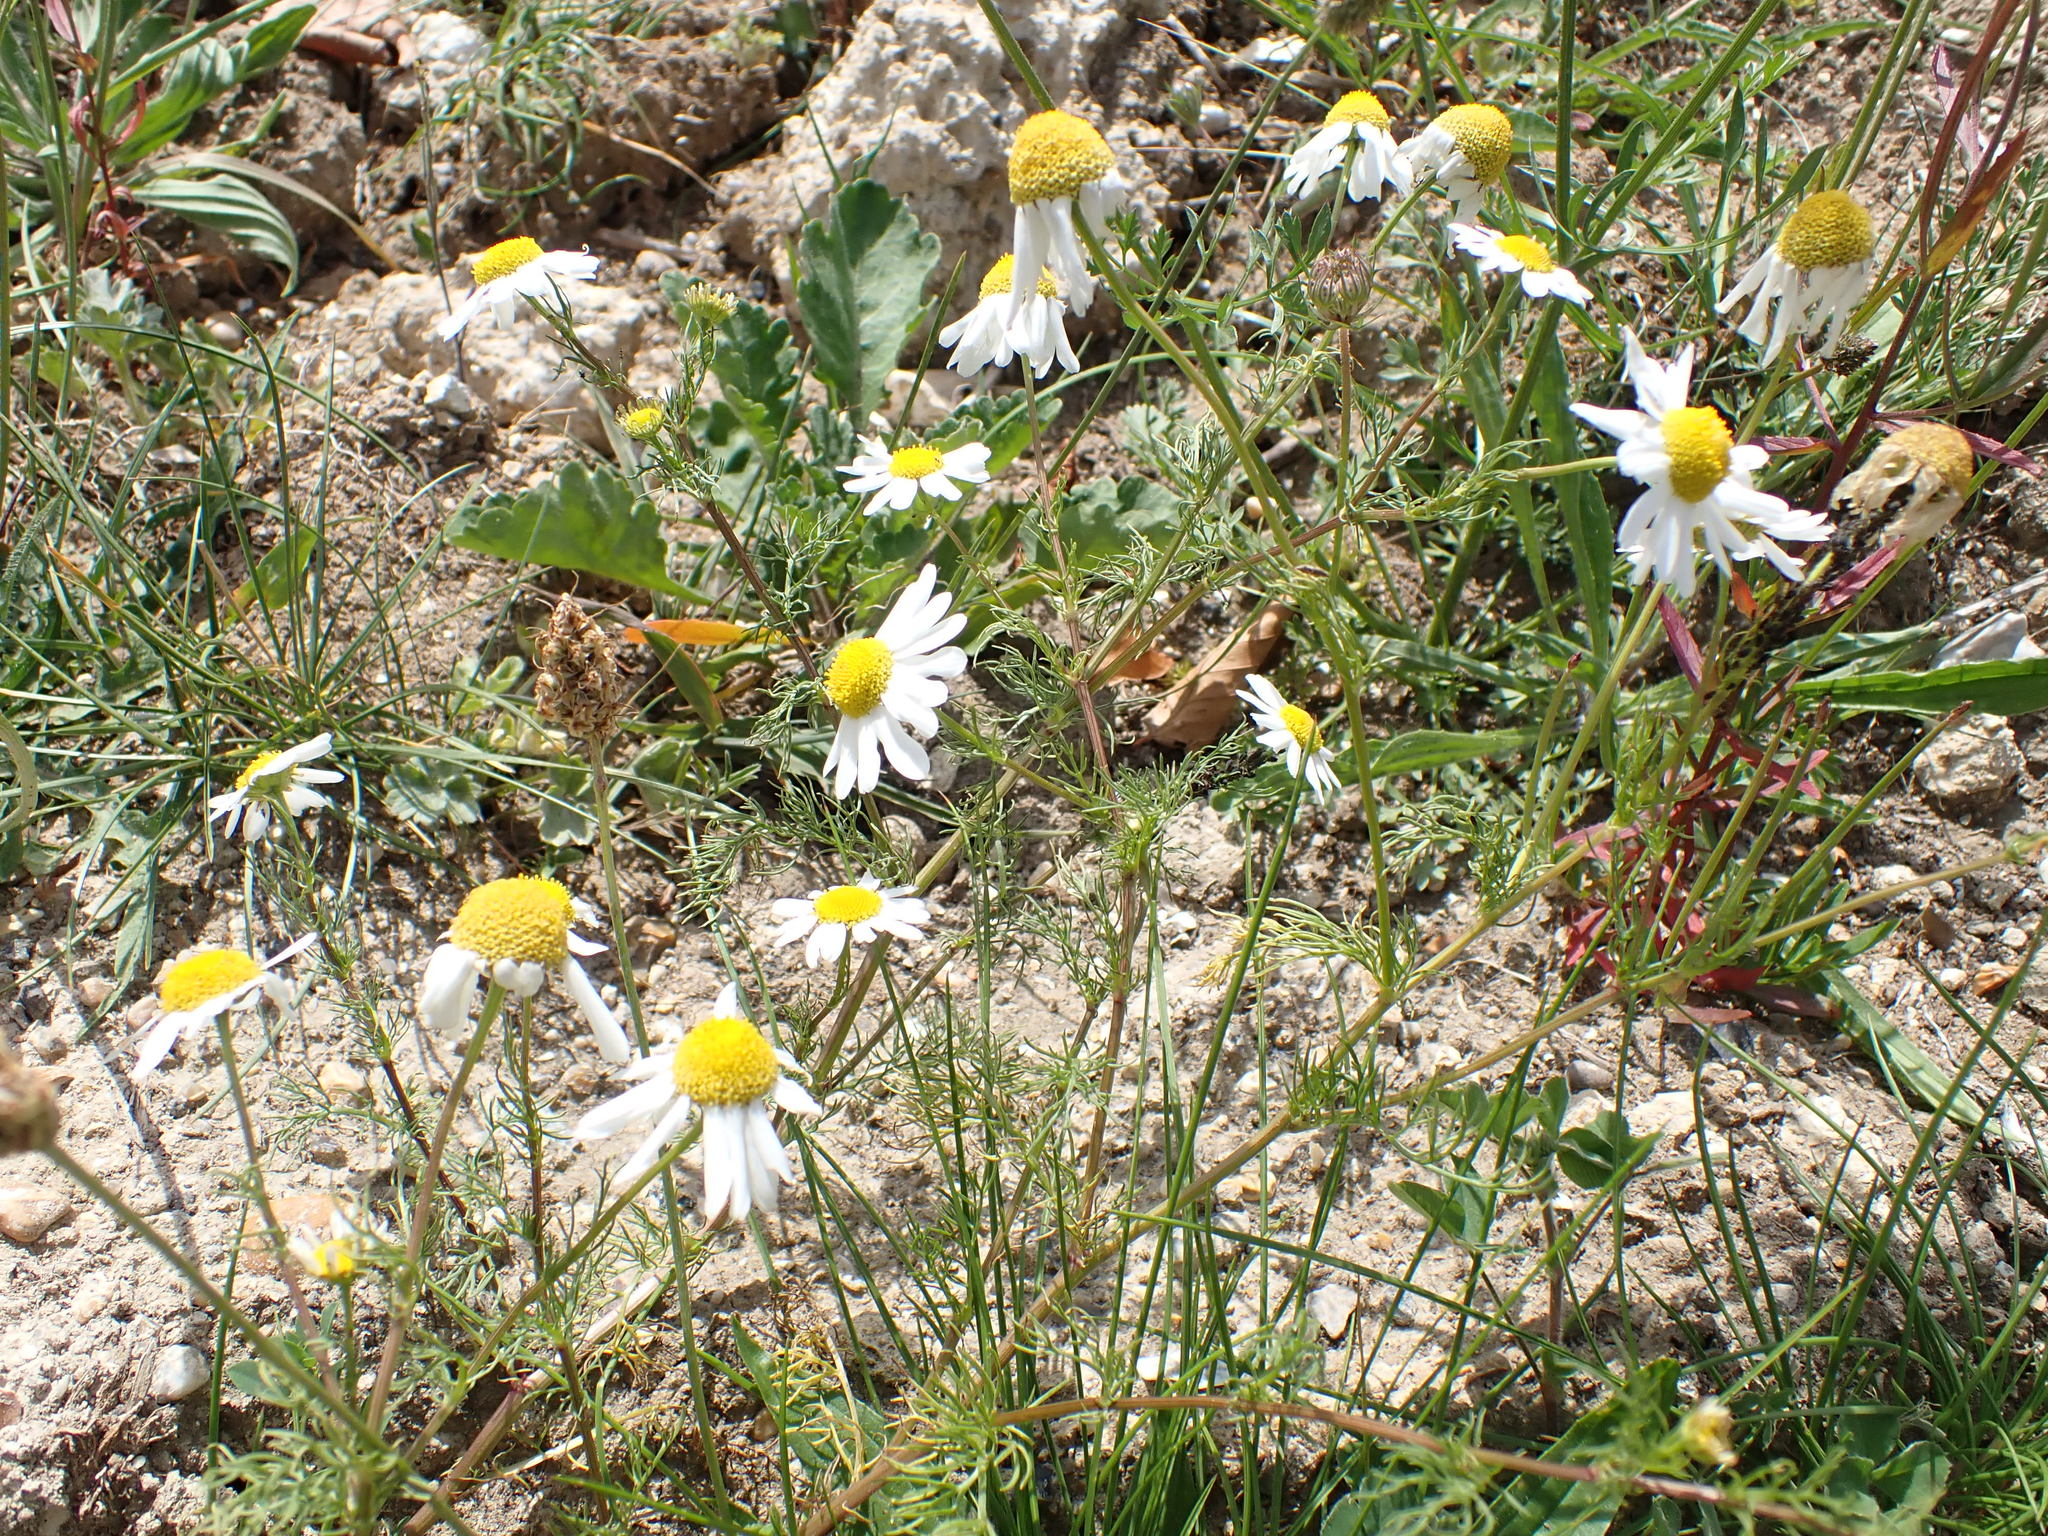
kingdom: Plantae
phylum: Tracheophyta
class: Magnoliopsida
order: Asterales
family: Asteraceae
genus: Tripleurospermum
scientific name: Tripleurospermum inodorum
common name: Scentless mayweed
